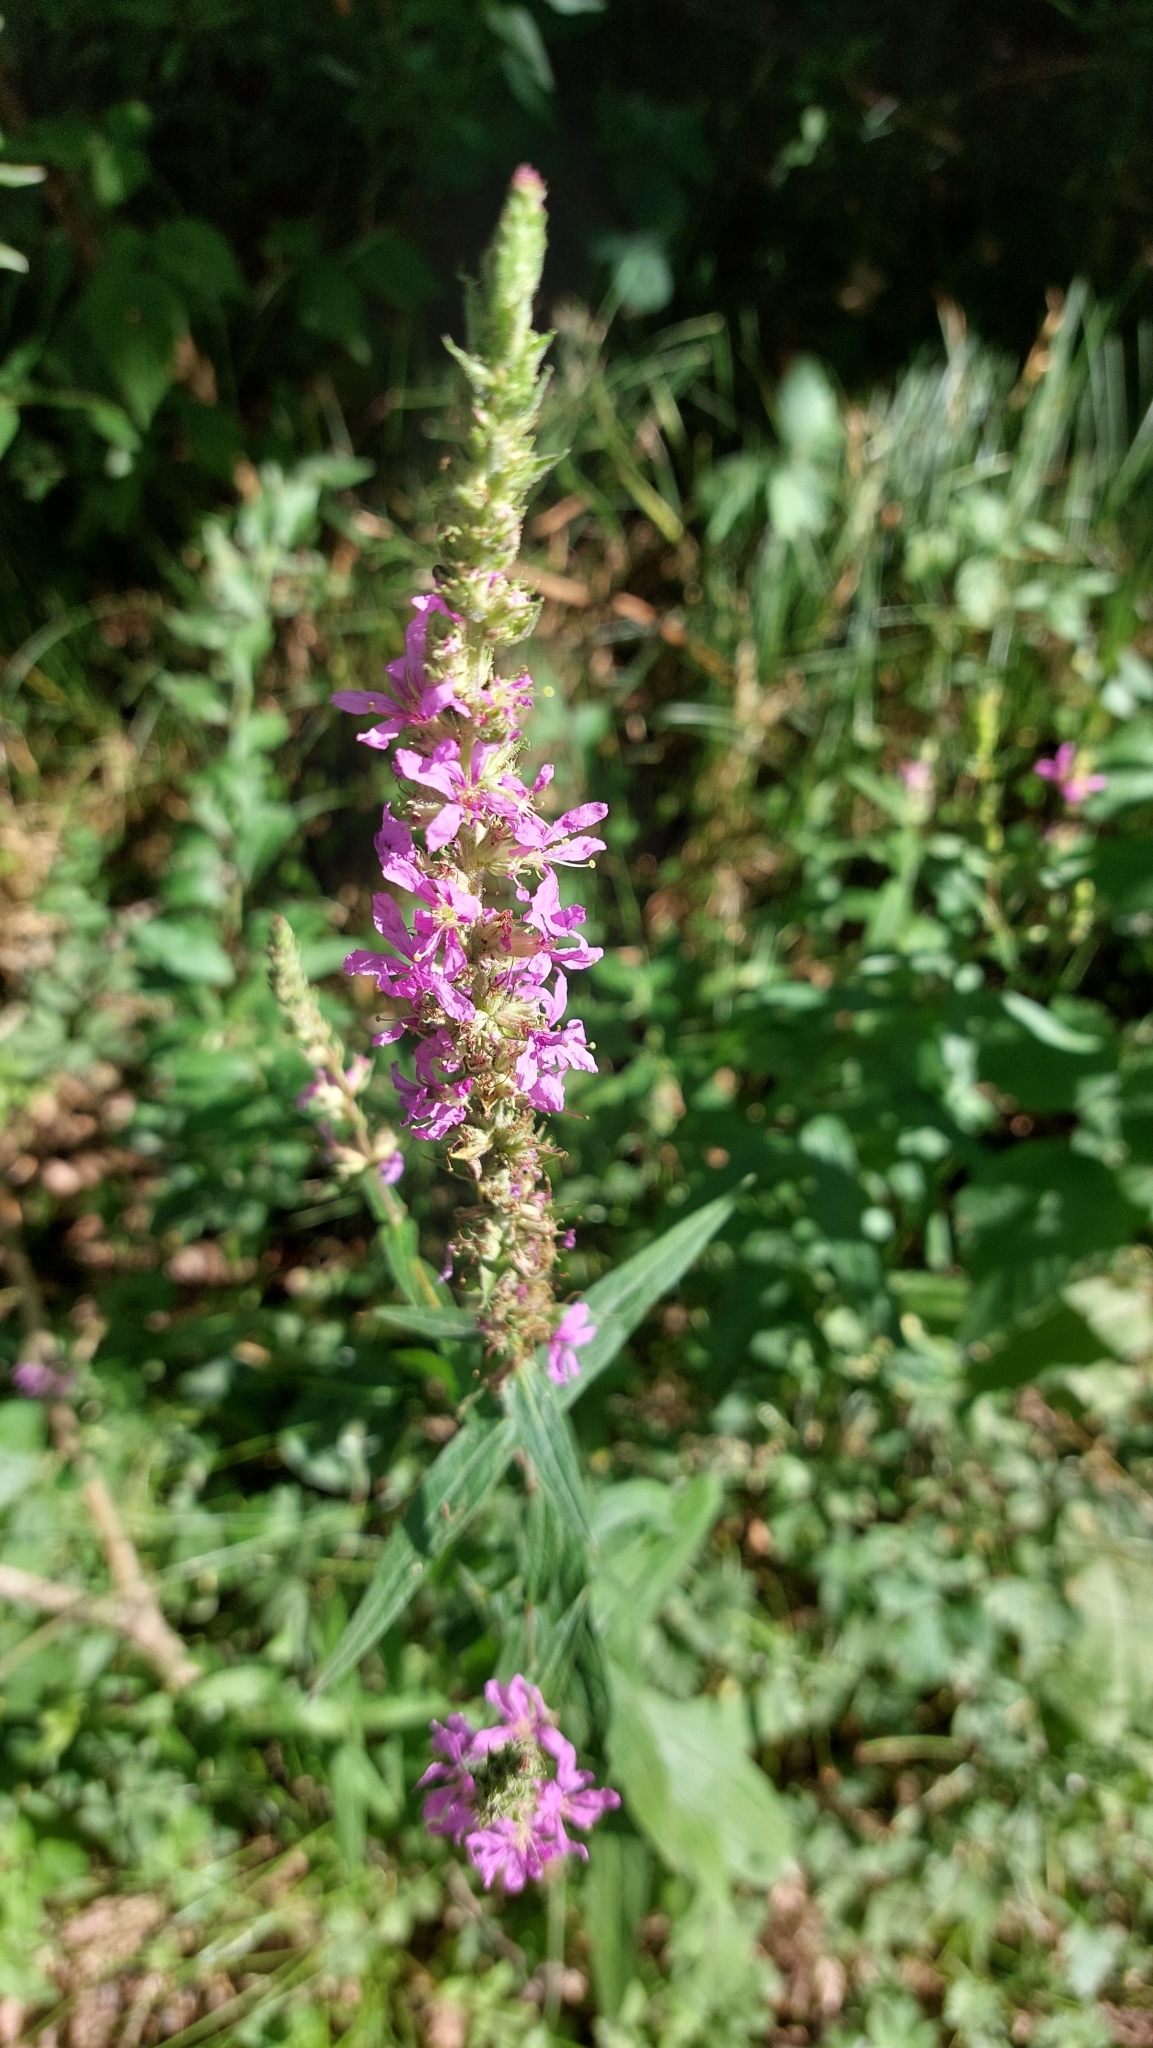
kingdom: Plantae
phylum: Tracheophyta
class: Magnoliopsida
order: Myrtales
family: Lythraceae
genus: Lythrum
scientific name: Lythrum salicaria
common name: Purple loosestrife
